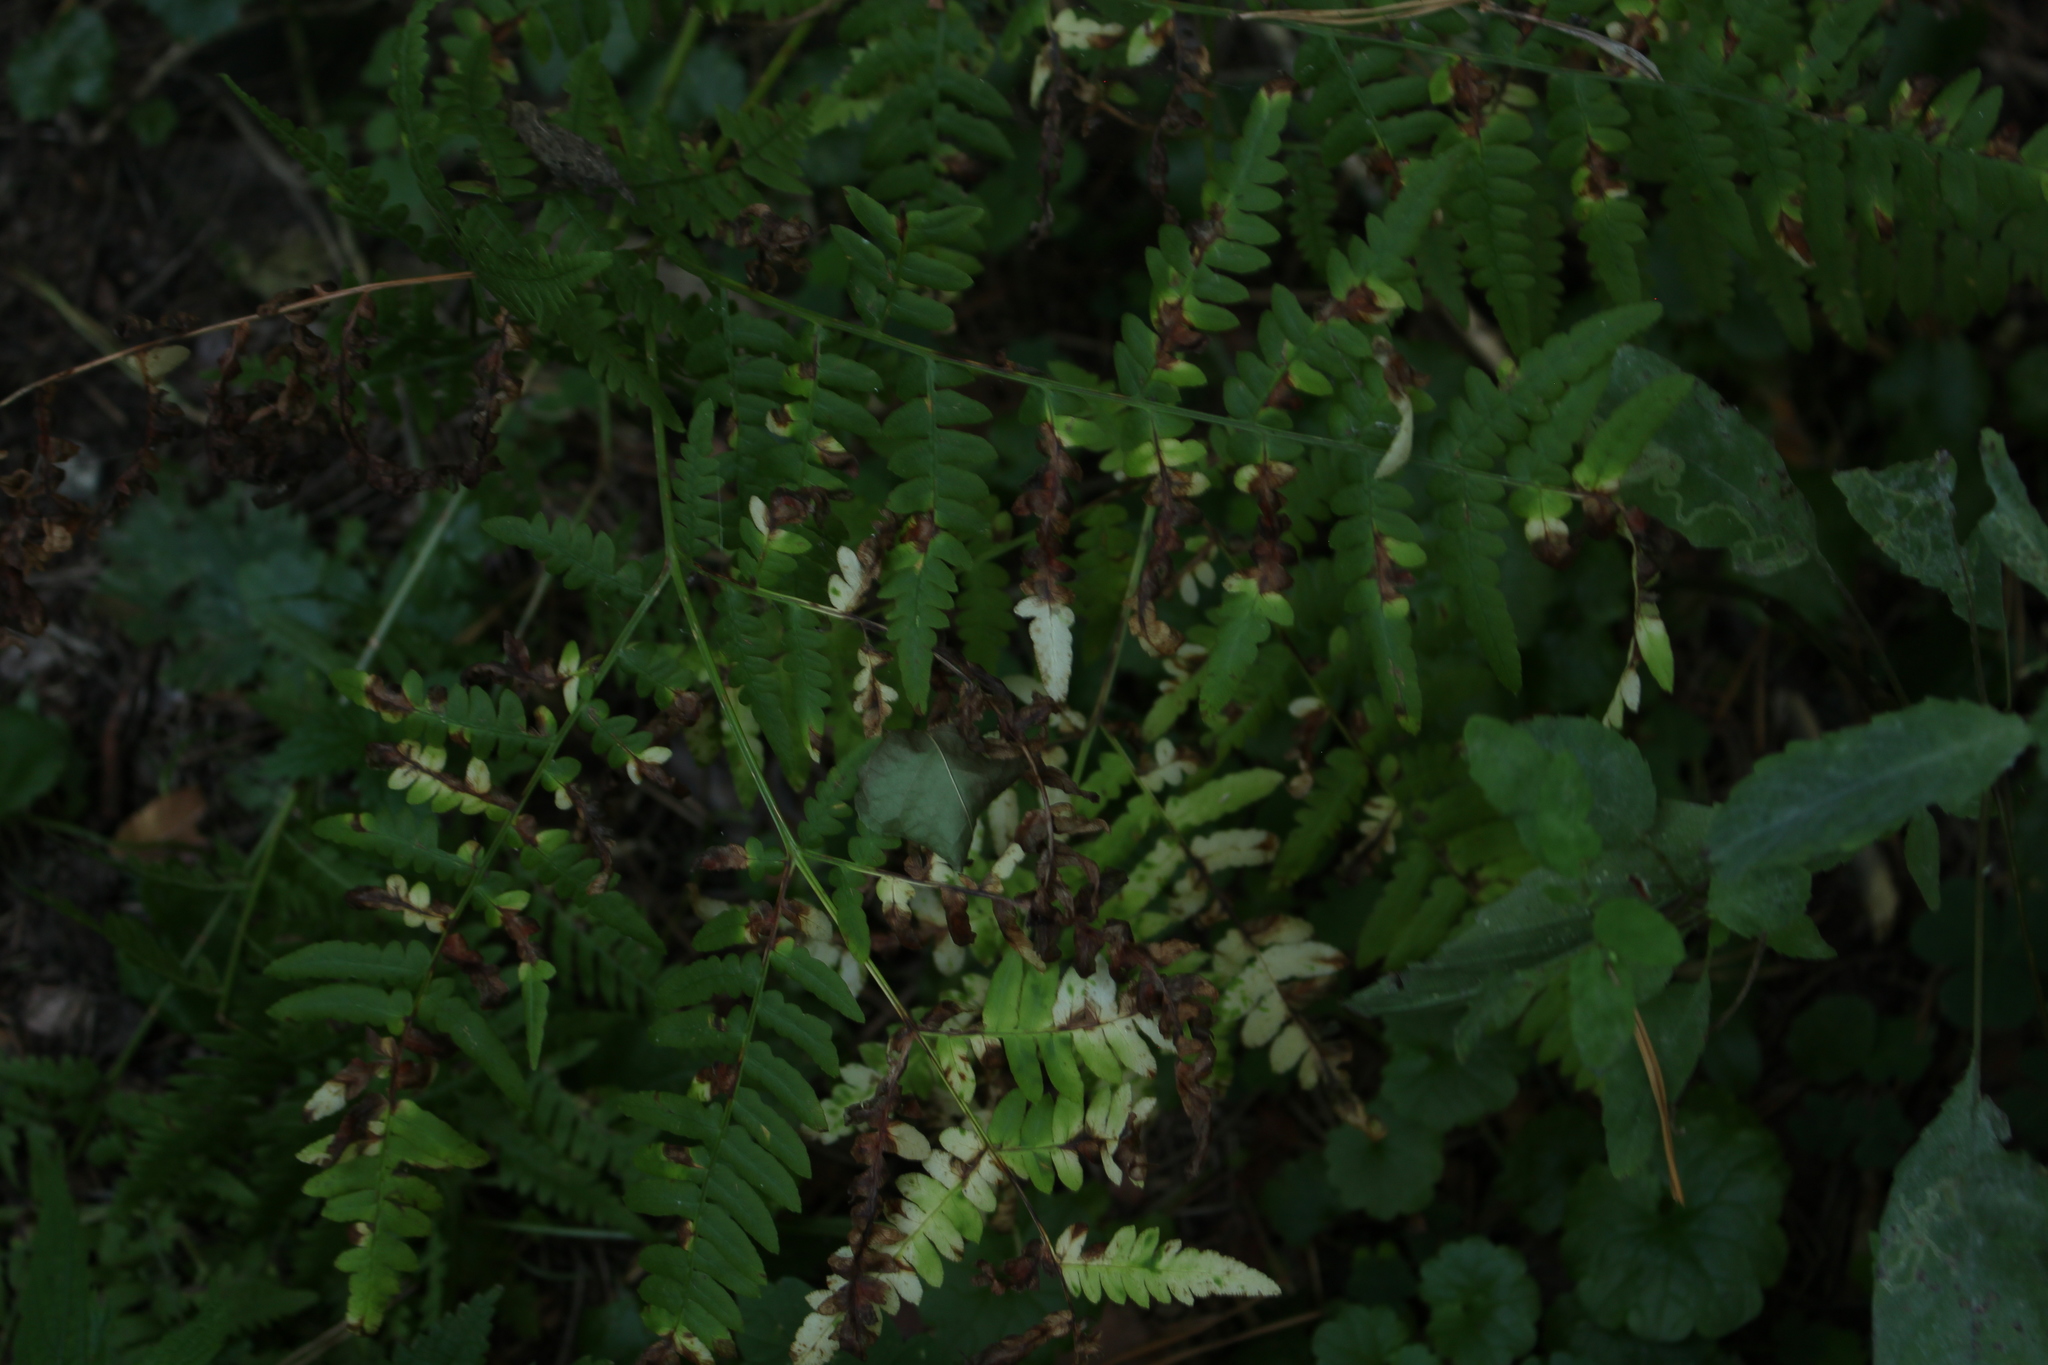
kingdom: Plantae
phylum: Tracheophyta
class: Polypodiopsida
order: Polypodiales
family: Dennstaedtiaceae
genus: Pteridium
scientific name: Pteridium aquilinum
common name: Bracken
